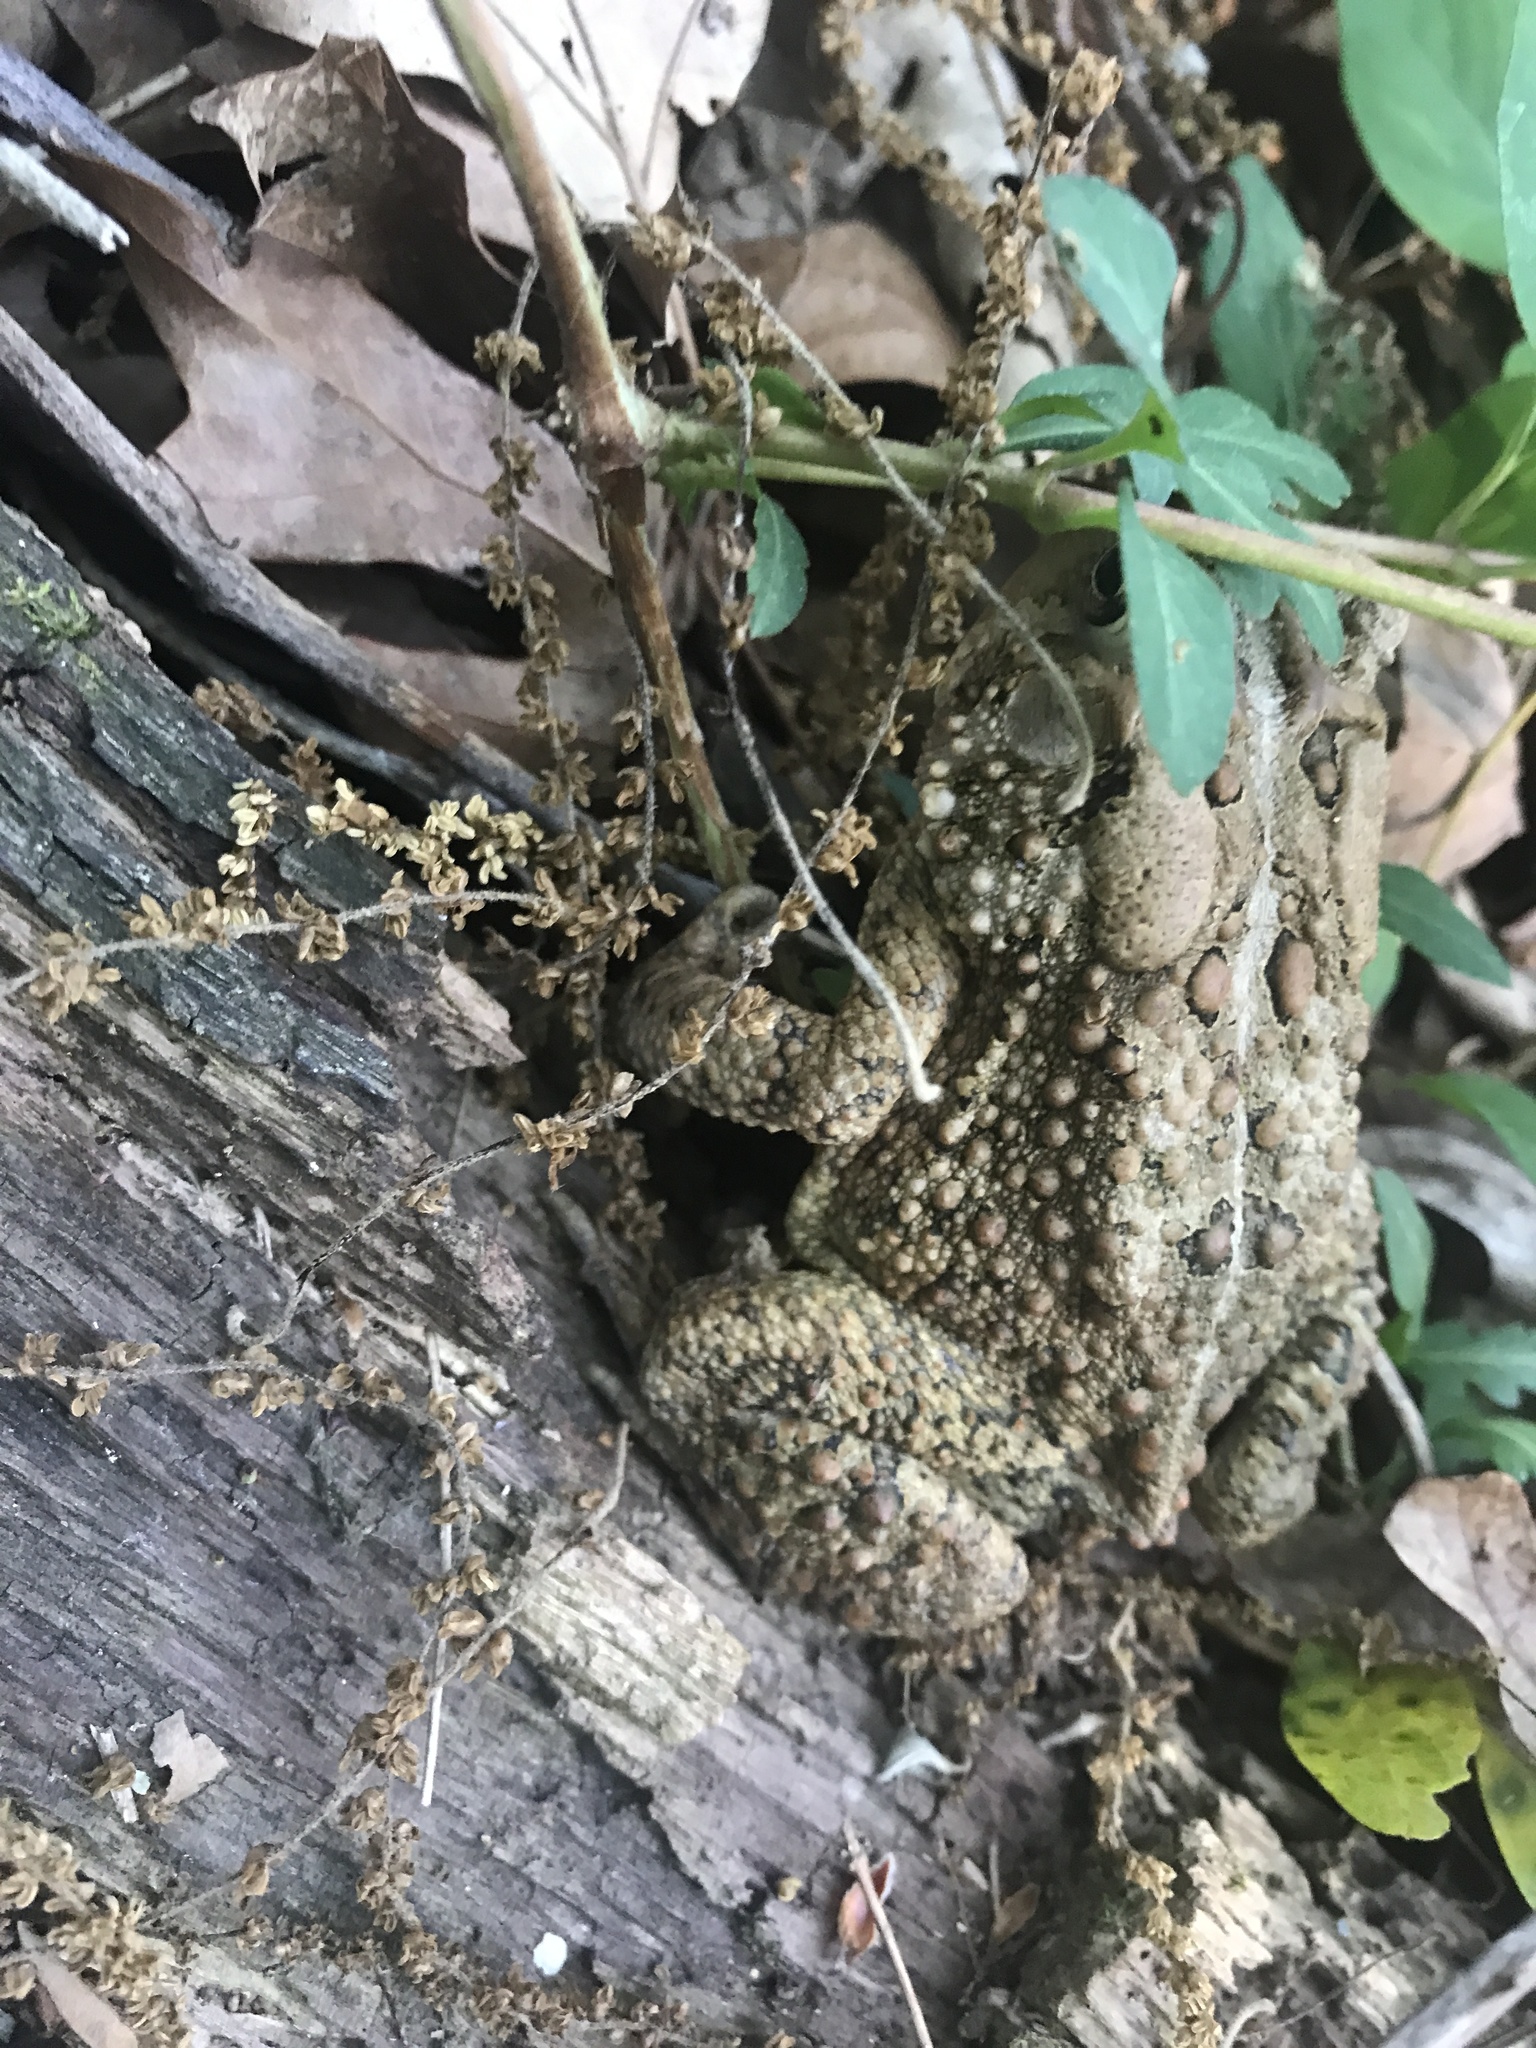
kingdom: Animalia
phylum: Chordata
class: Amphibia
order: Anura
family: Bufonidae
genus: Anaxyrus
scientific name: Anaxyrus americanus
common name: American toad
